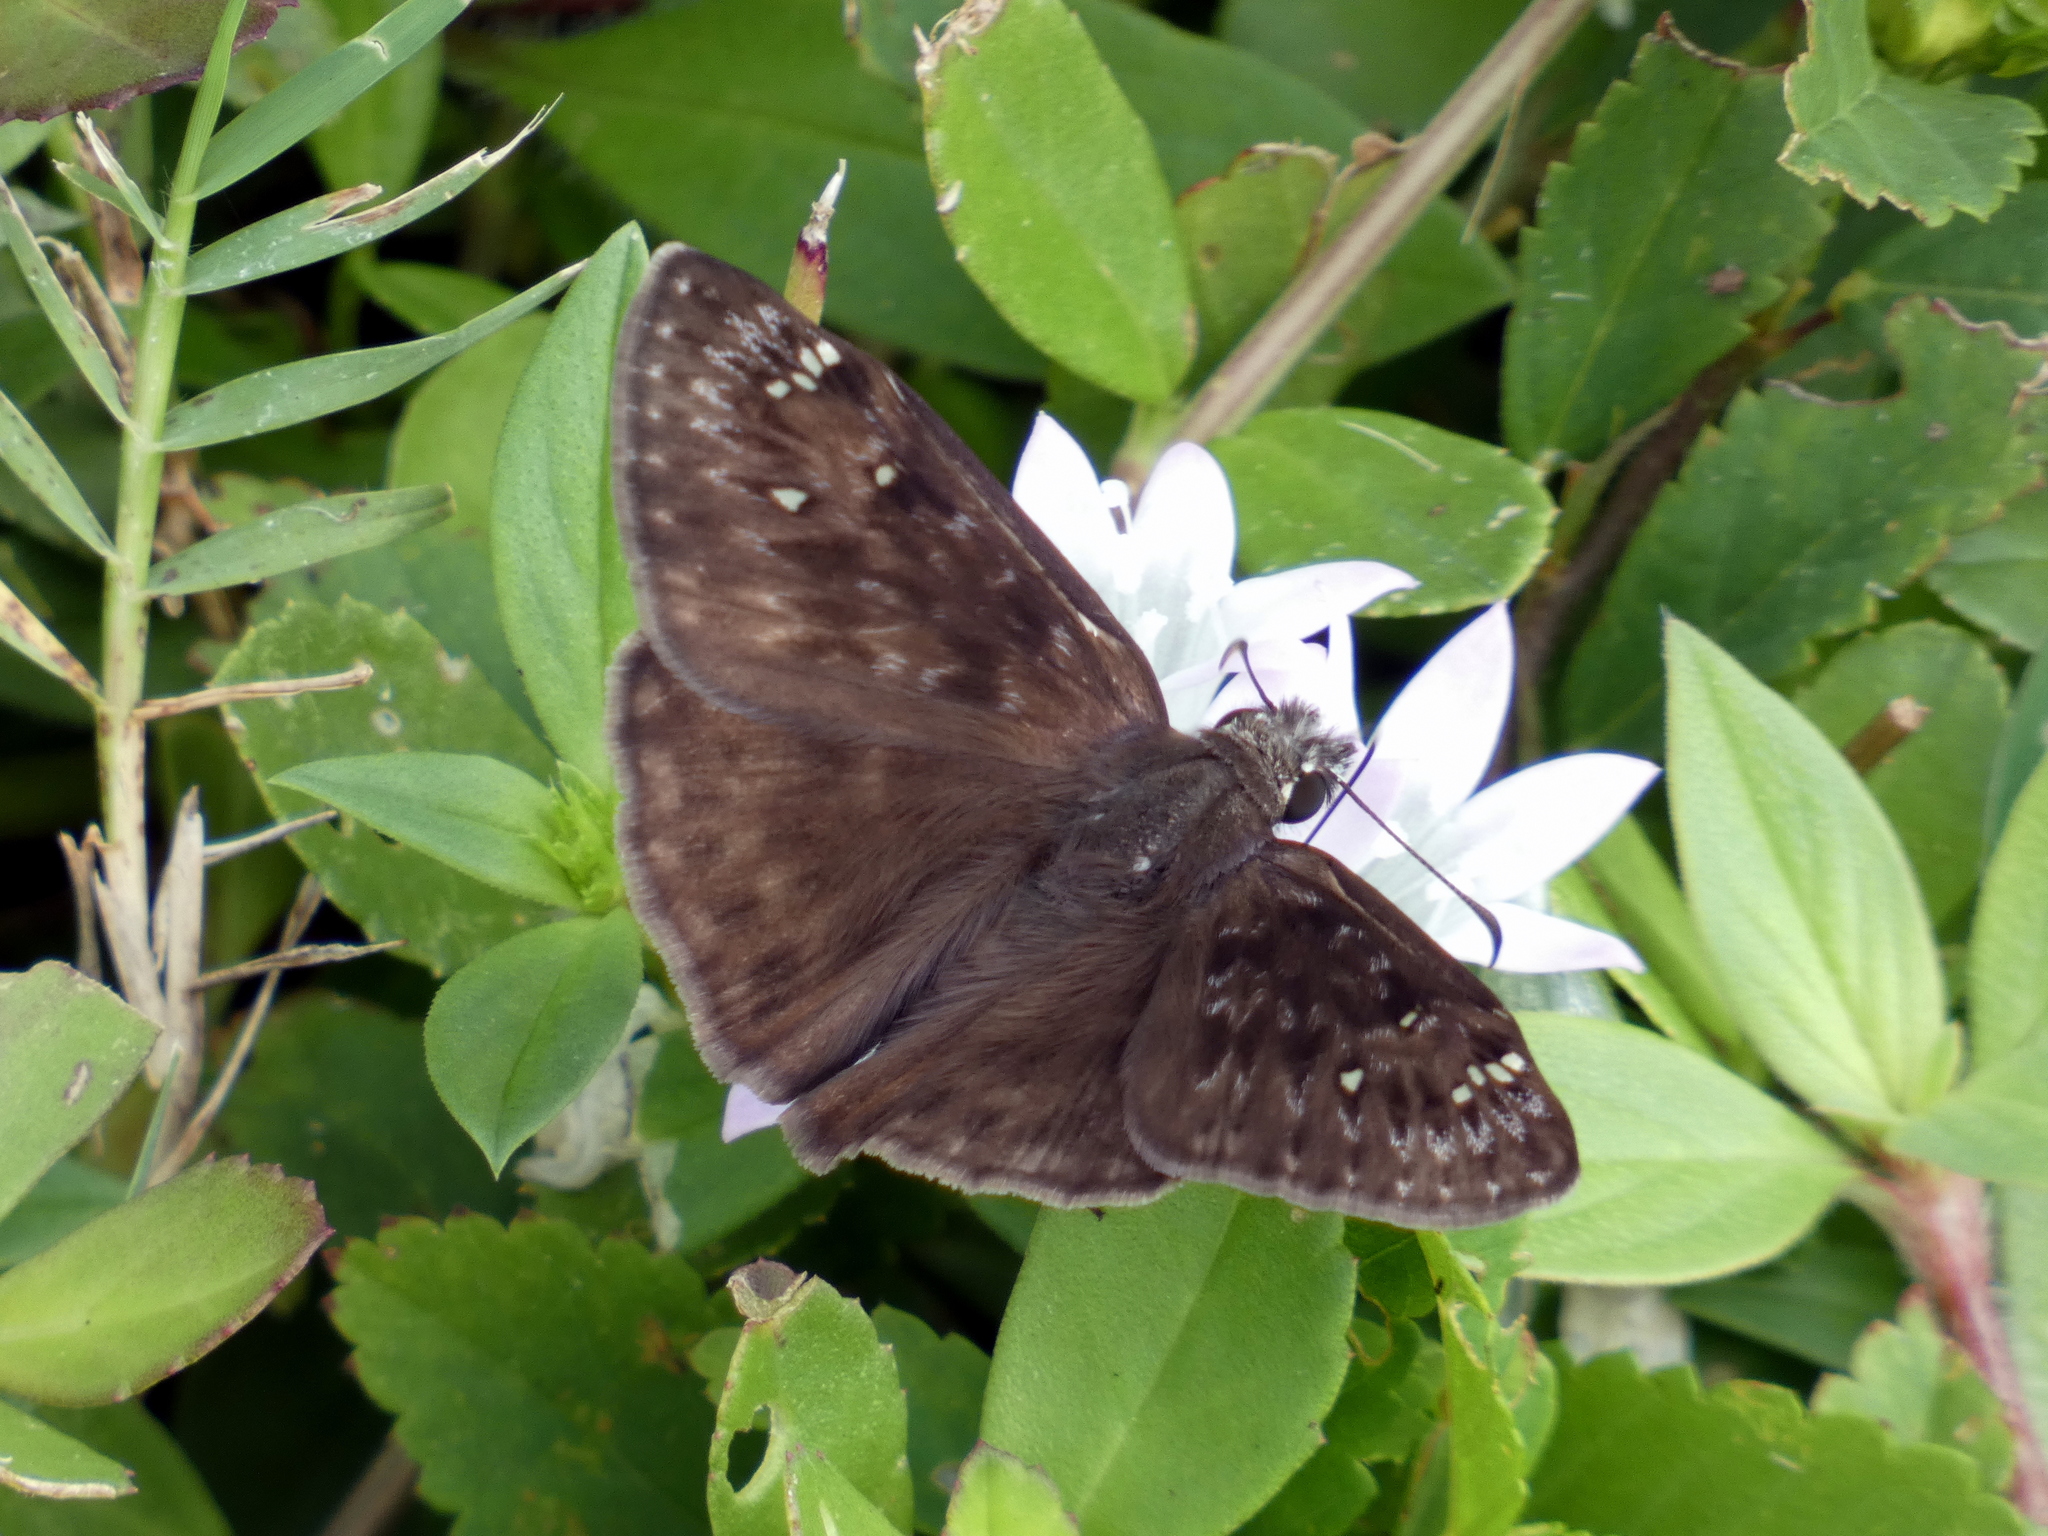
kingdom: Animalia
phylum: Arthropoda
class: Insecta
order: Lepidoptera
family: Hesperiidae
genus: Erynnis
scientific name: Erynnis horatius
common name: Horace's duskywing
